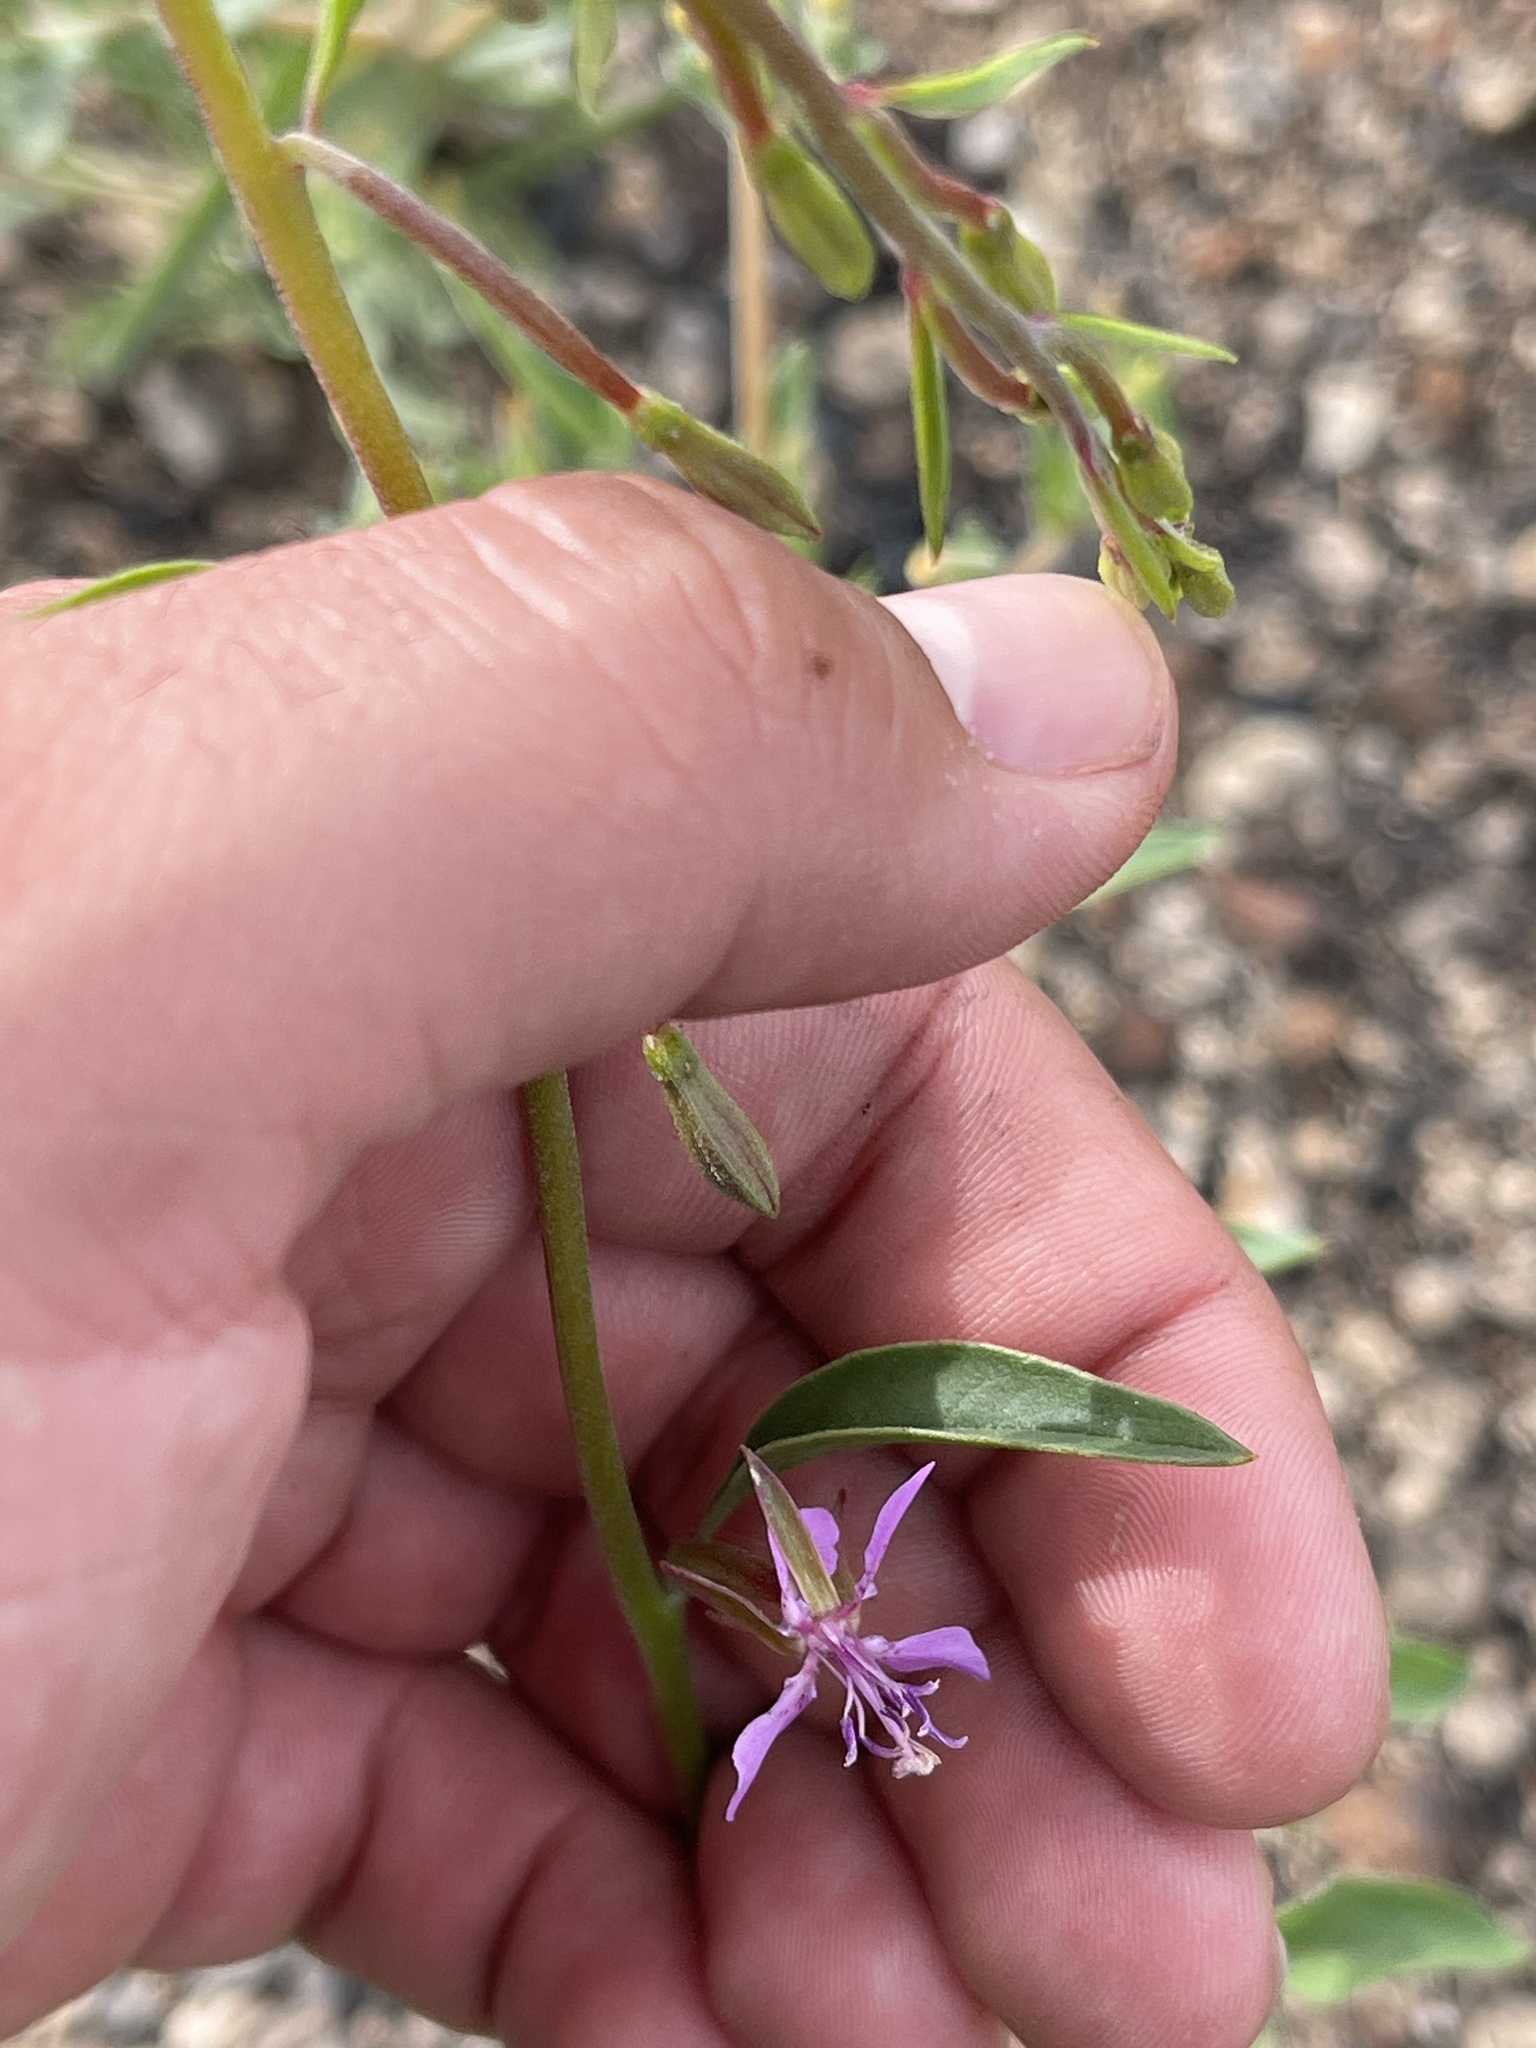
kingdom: Plantae
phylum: Tracheophyta
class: Magnoliopsida
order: Myrtales
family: Onagraceae
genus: Clarkia
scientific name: Clarkia rhomboidea
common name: Broadleaf clarkia
